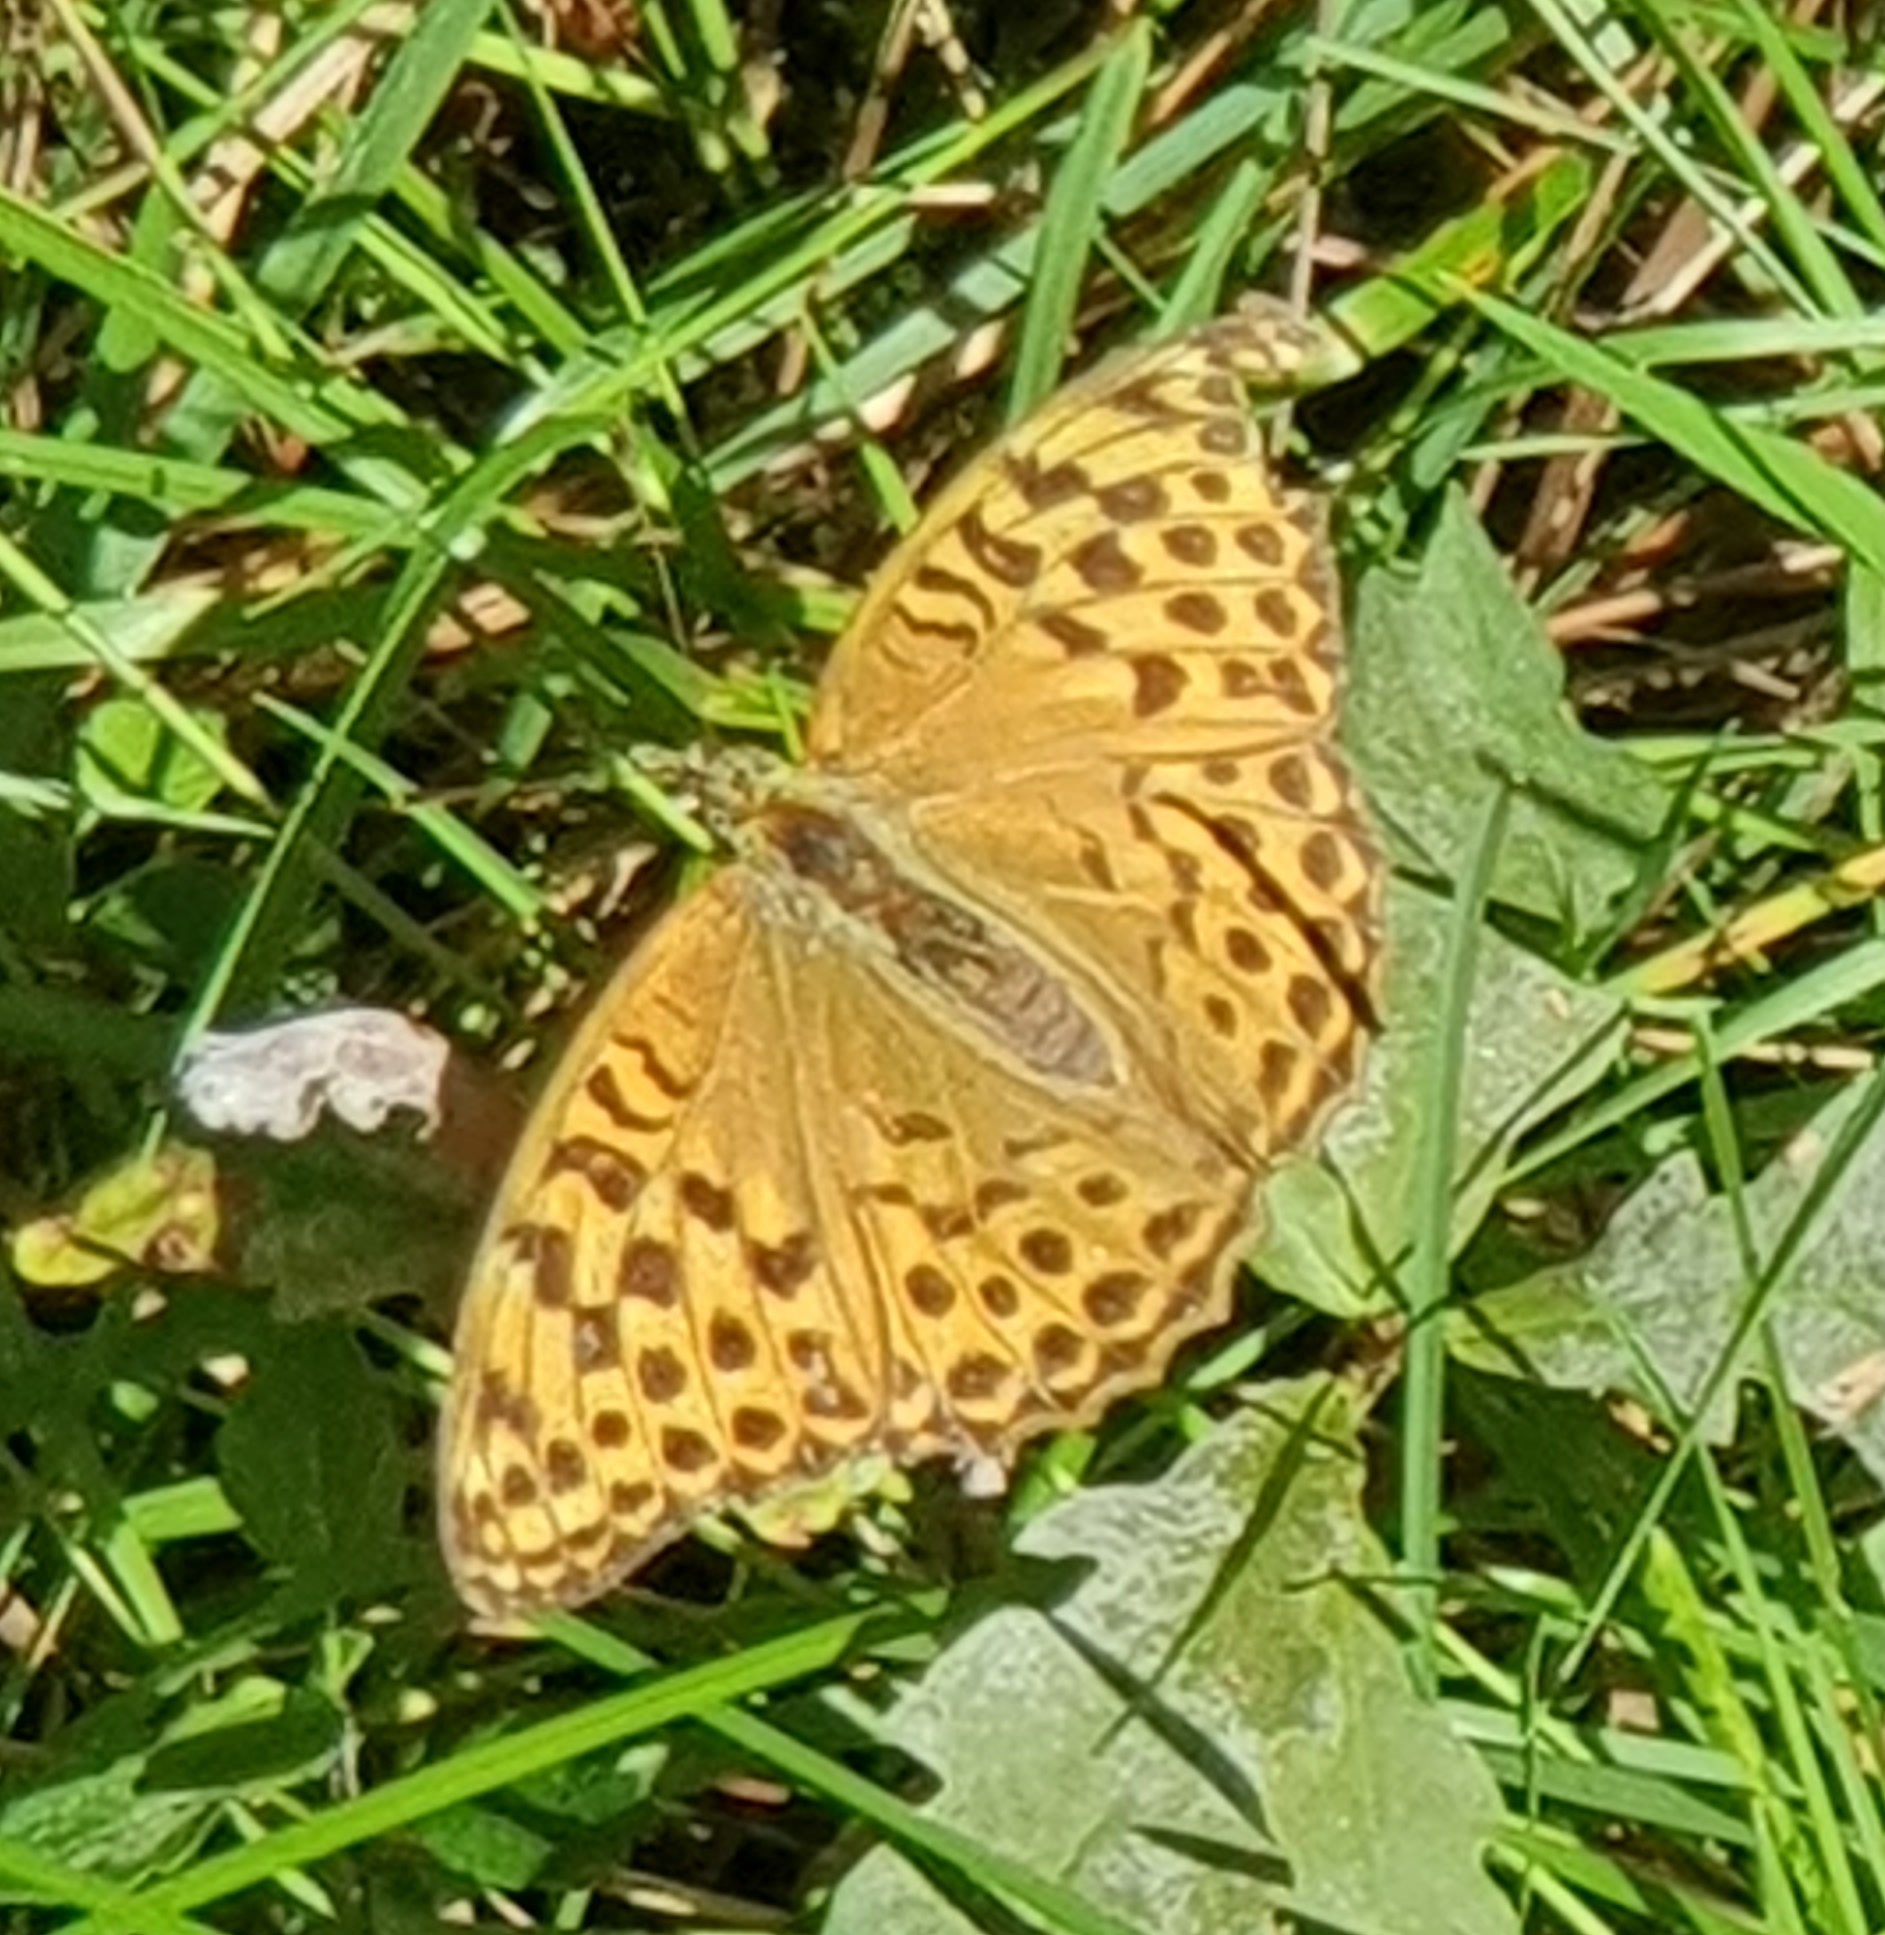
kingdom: Animalia
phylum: Arthropoda
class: Insecta
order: Lepidoptera
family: Nymphalidae
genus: Argynnis
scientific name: Argynnis paphia
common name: Silver-washed fritillary
